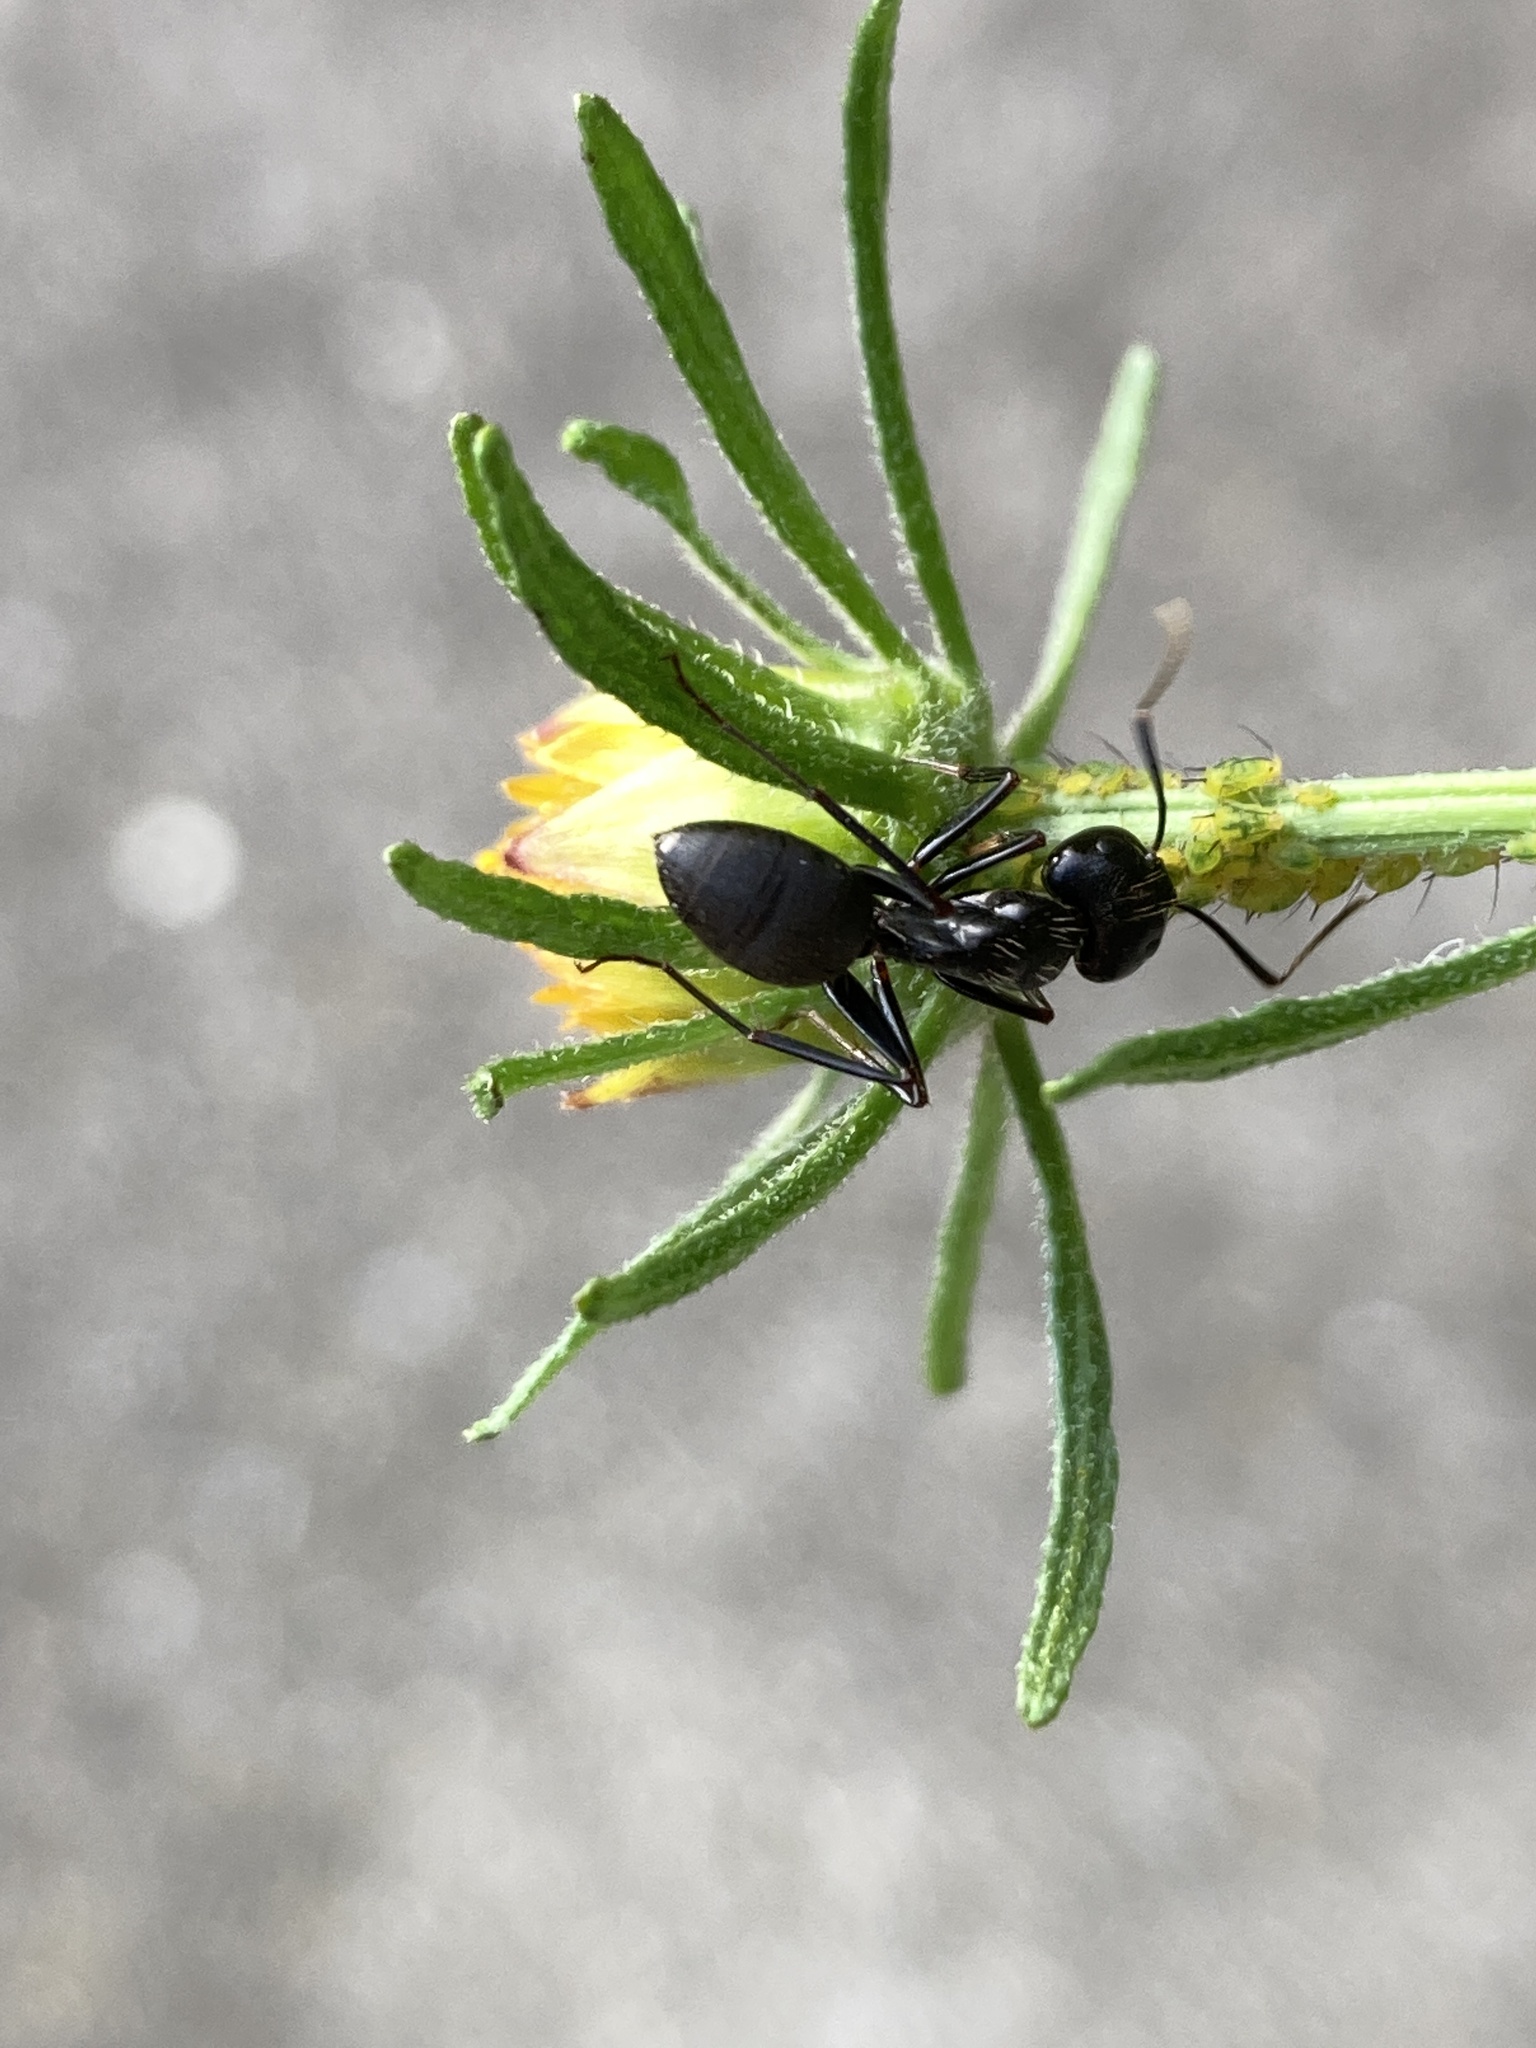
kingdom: Animalia
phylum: Arthropoda
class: Insecta
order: Hymenoptera
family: Formicidae
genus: Camponotus
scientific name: Camponotus pennsylvanicus
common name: Black carpenter ant
